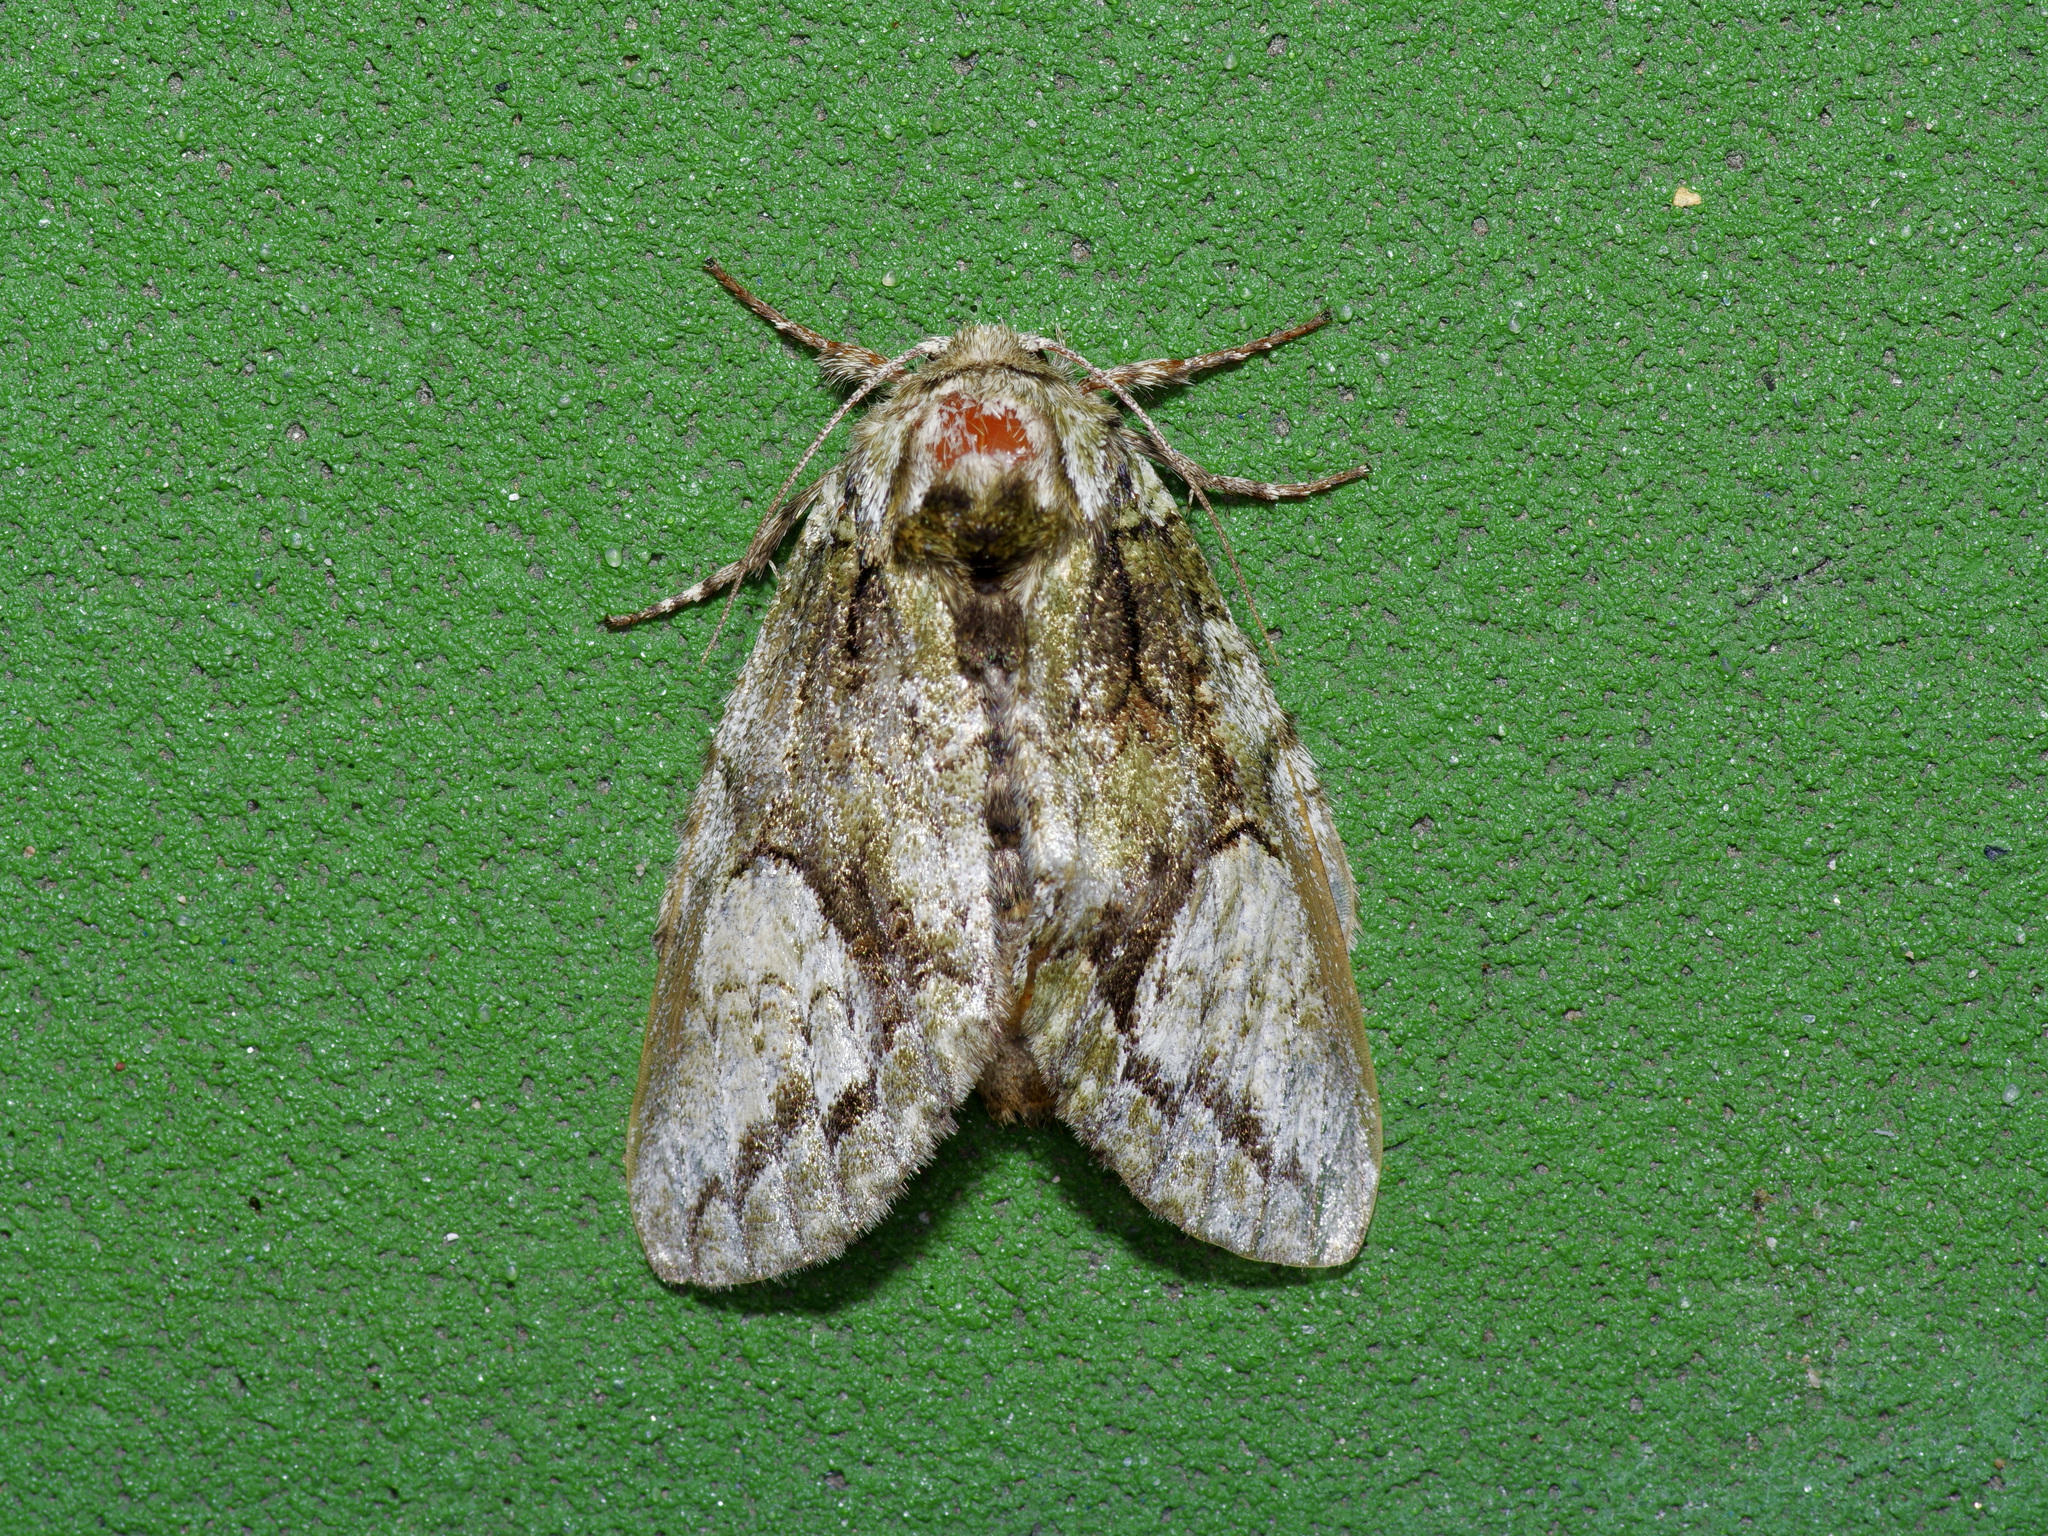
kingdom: Animalia
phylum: Arthropoda
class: Insecta
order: Lepidoptera
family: Notodontidae
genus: Heterocampa
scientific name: Heterocampa
